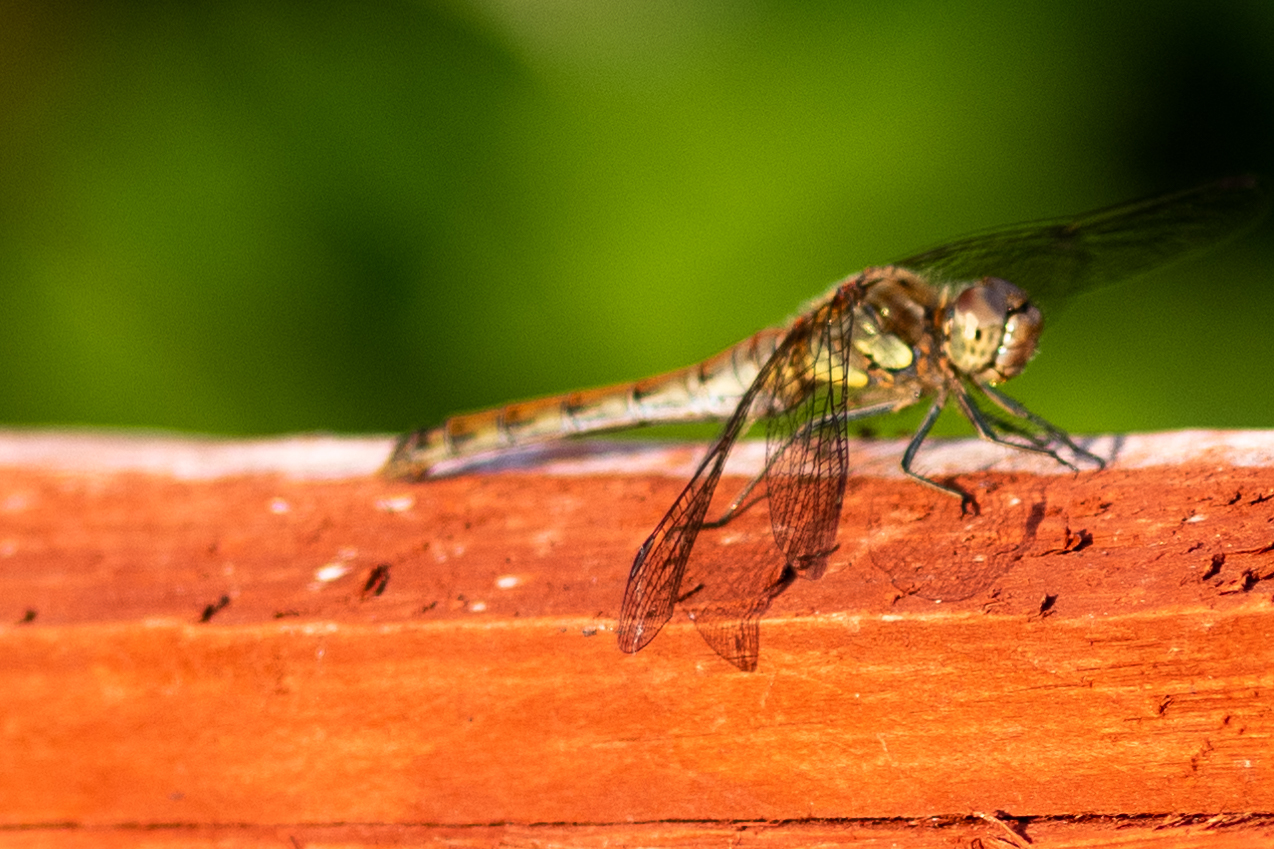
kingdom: Animalia
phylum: Arthropoda
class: Insecta
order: Odonata
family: Libellulidae
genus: Sympetrum
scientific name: Sympetrum striolatum
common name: Common darter
